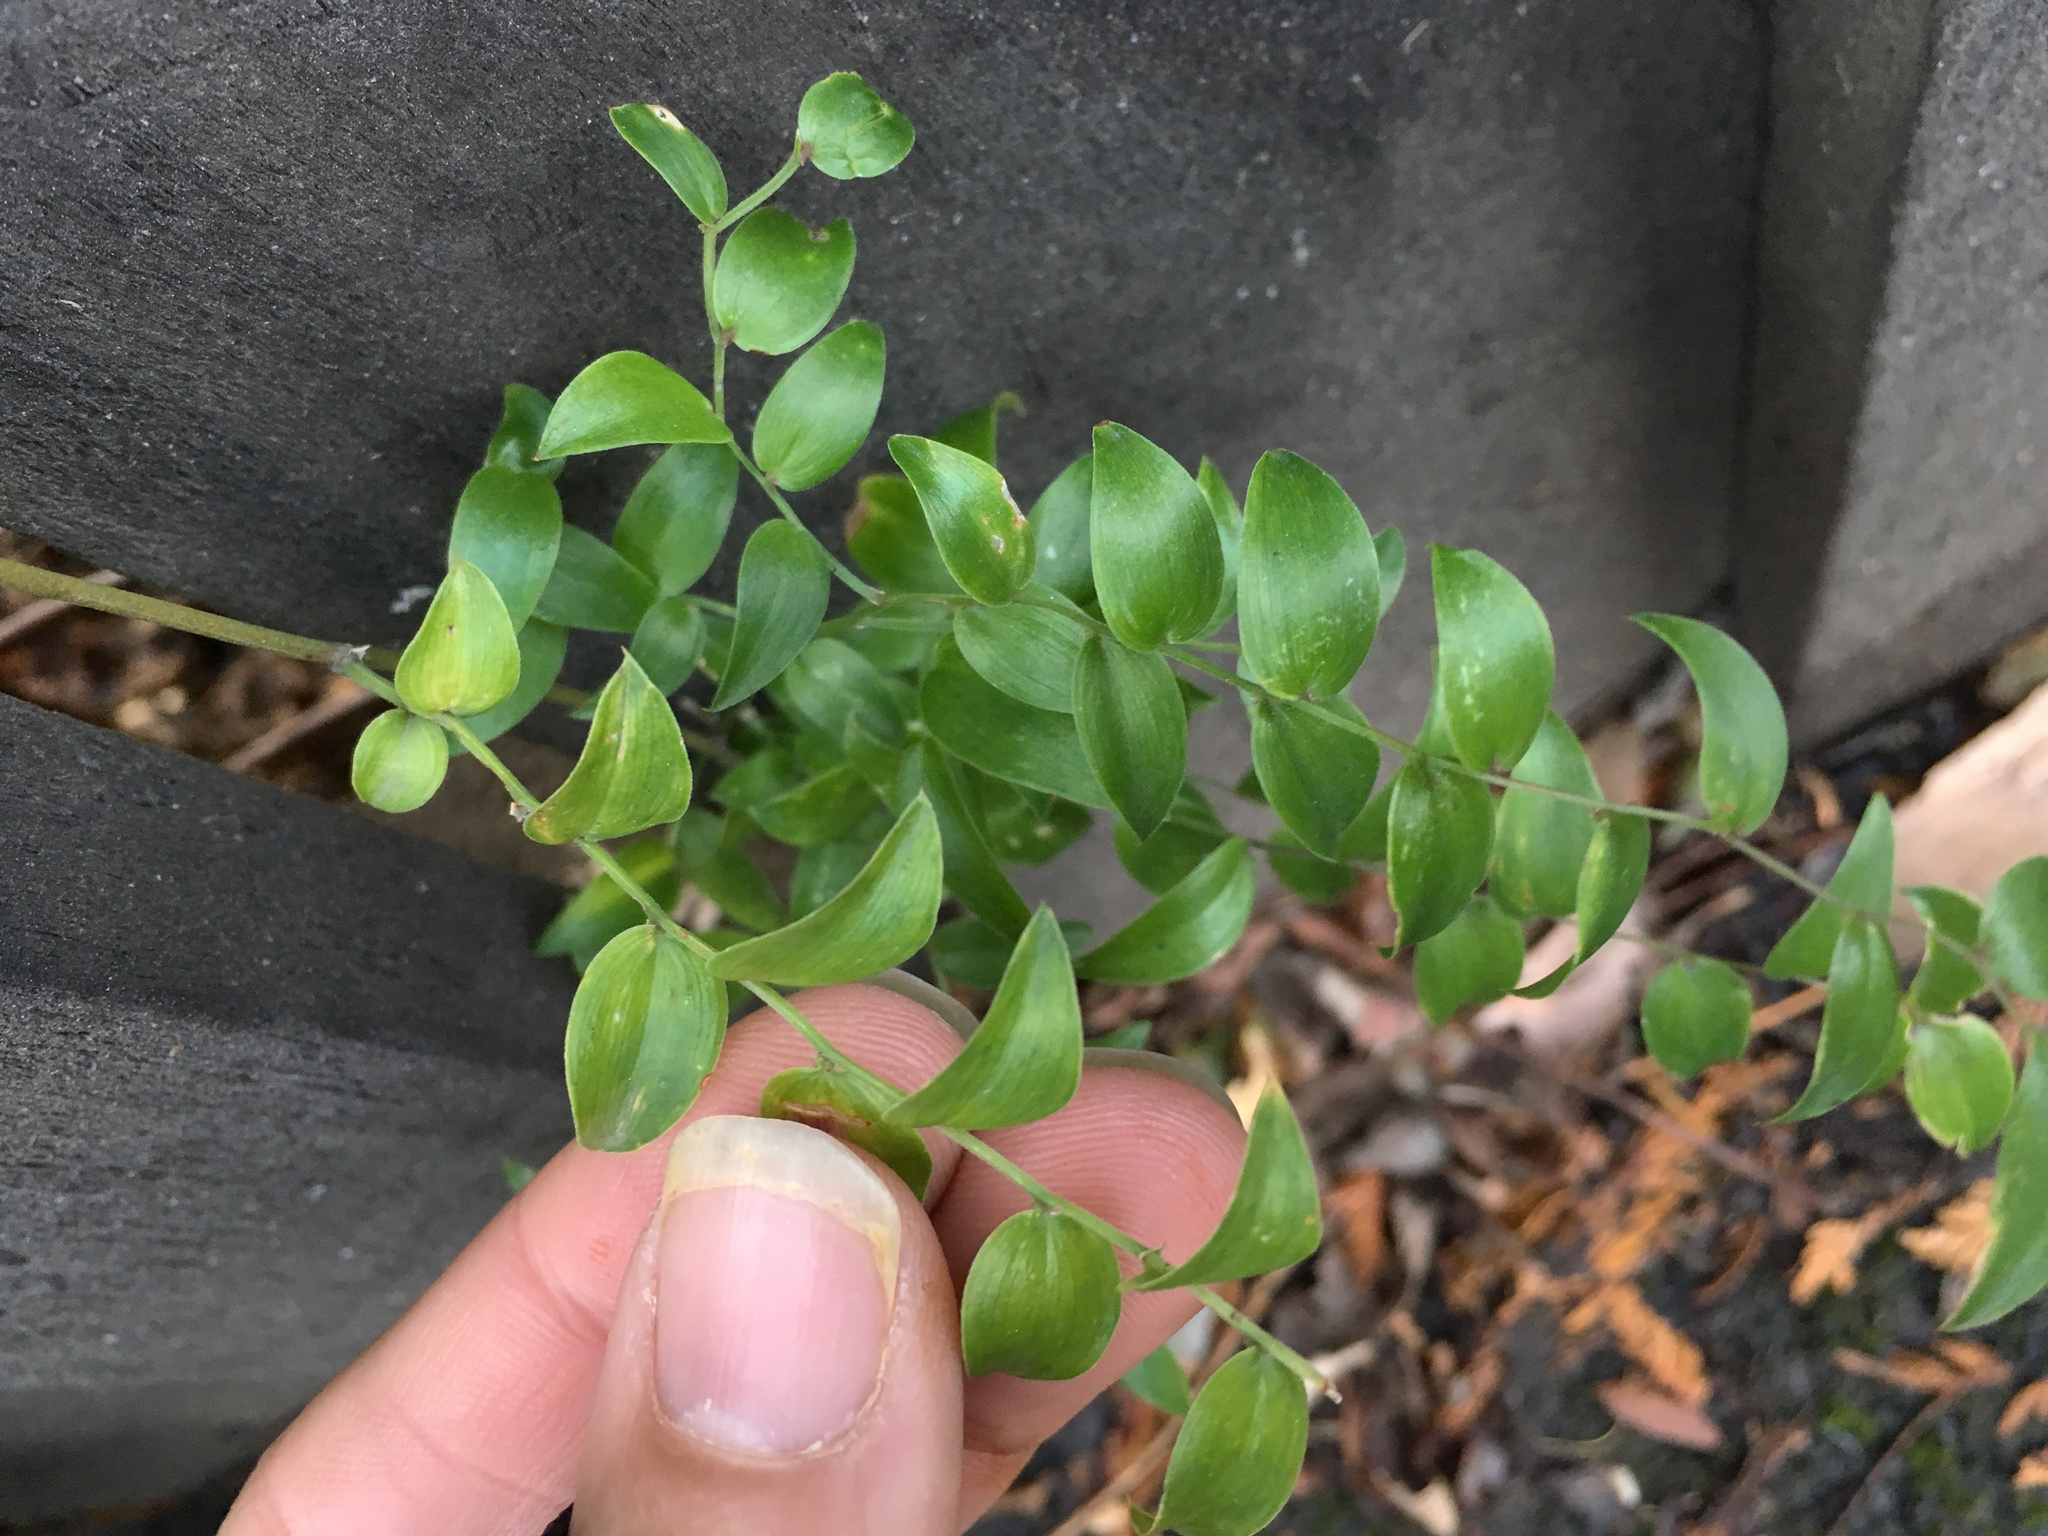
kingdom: Plantae
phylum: Tracheophyta
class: Liliopsida
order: Asparagales
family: Asparagaceae
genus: Asparagus
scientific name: Asparagus asparagoides
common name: African asparagus fern
